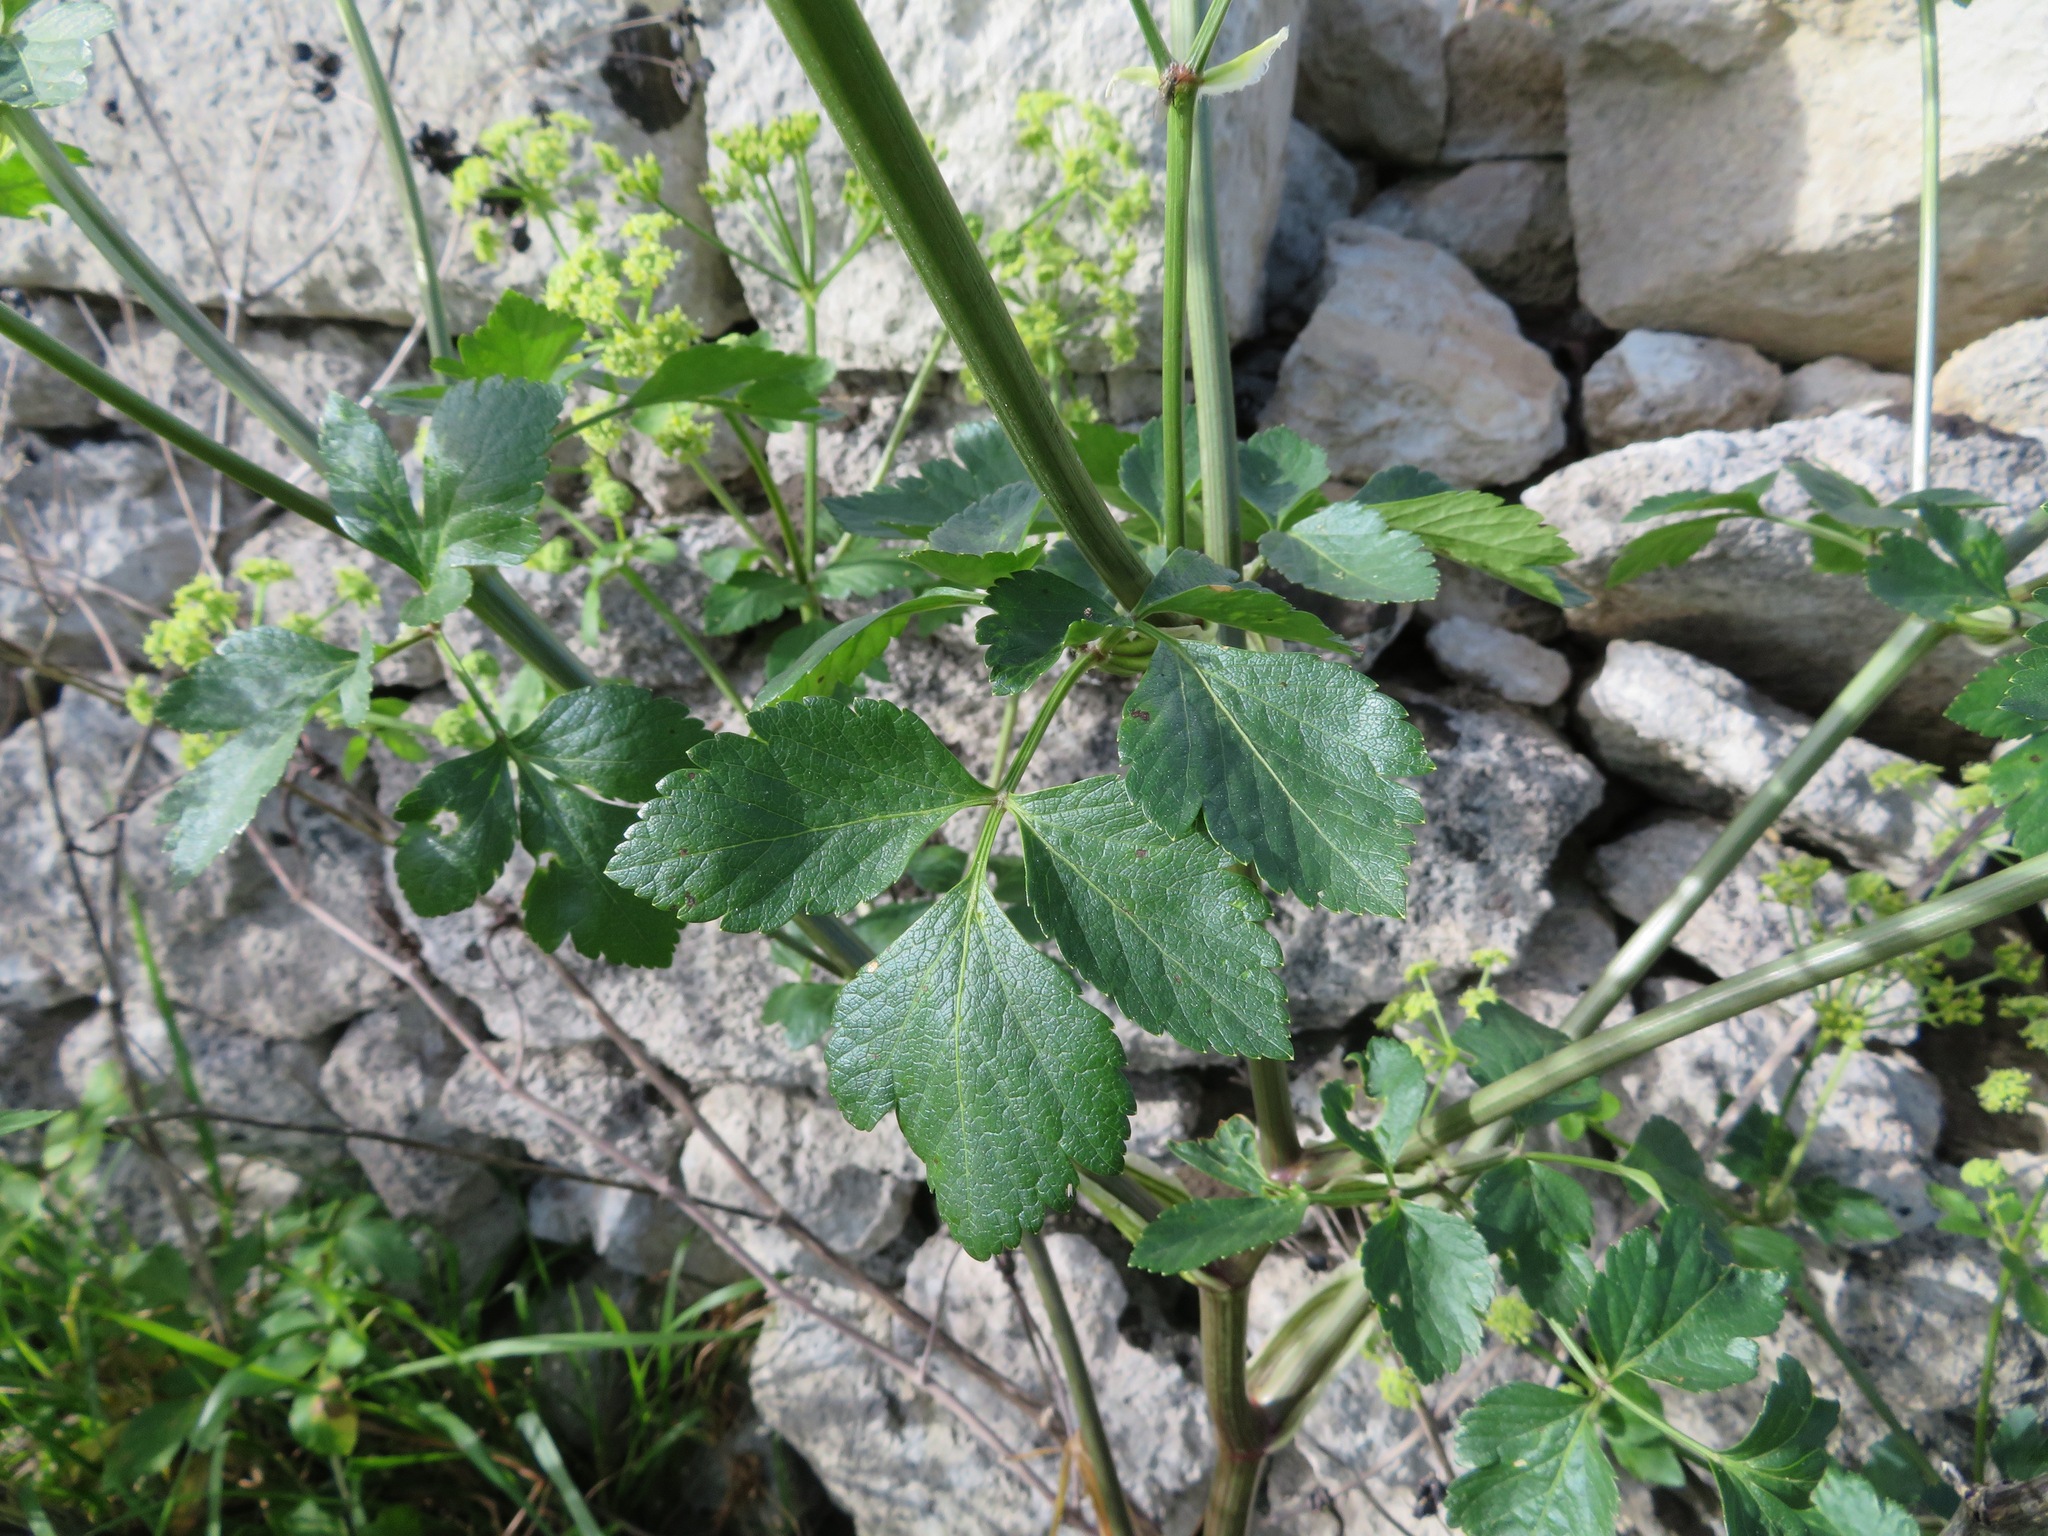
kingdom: Plantae
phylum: Tracheophyta
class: Magnoliopsida
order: Apiales
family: Apiaceae
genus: Smyrnium
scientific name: Smyrnium olusatrum
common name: Alexanders
